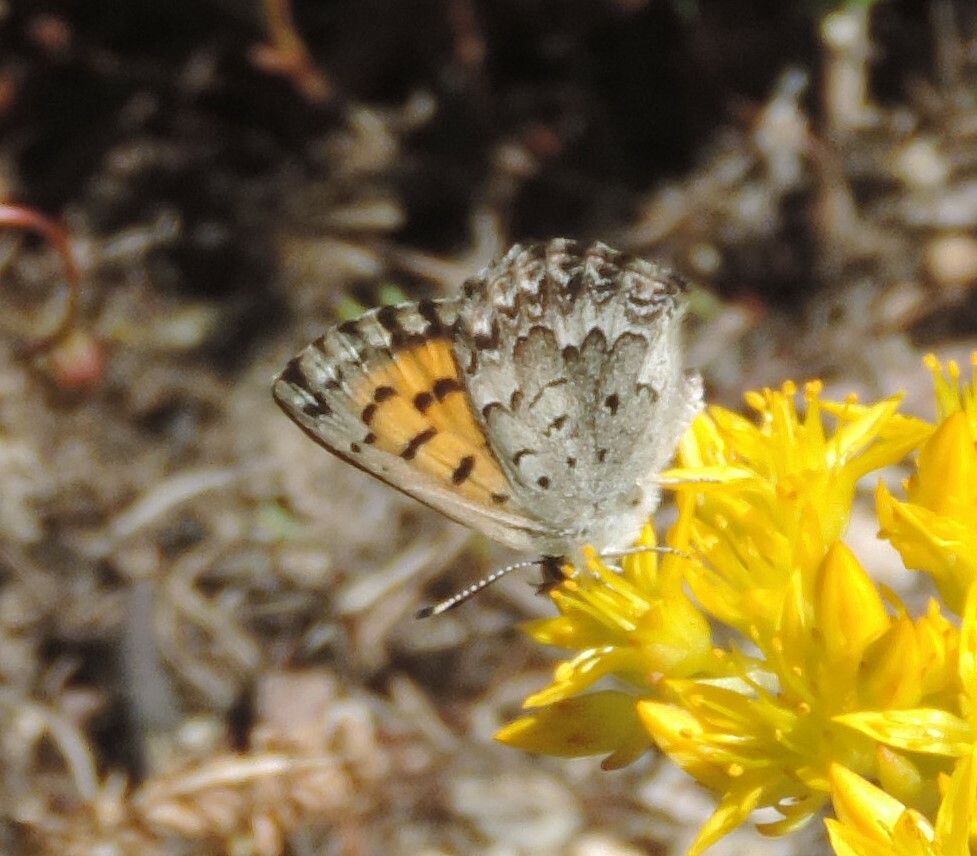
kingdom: Animalia
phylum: Arthropoda
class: Insecta
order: Lepidoptera
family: Lycaenidae
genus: Tharsalea
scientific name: Tharsalea mariposa
